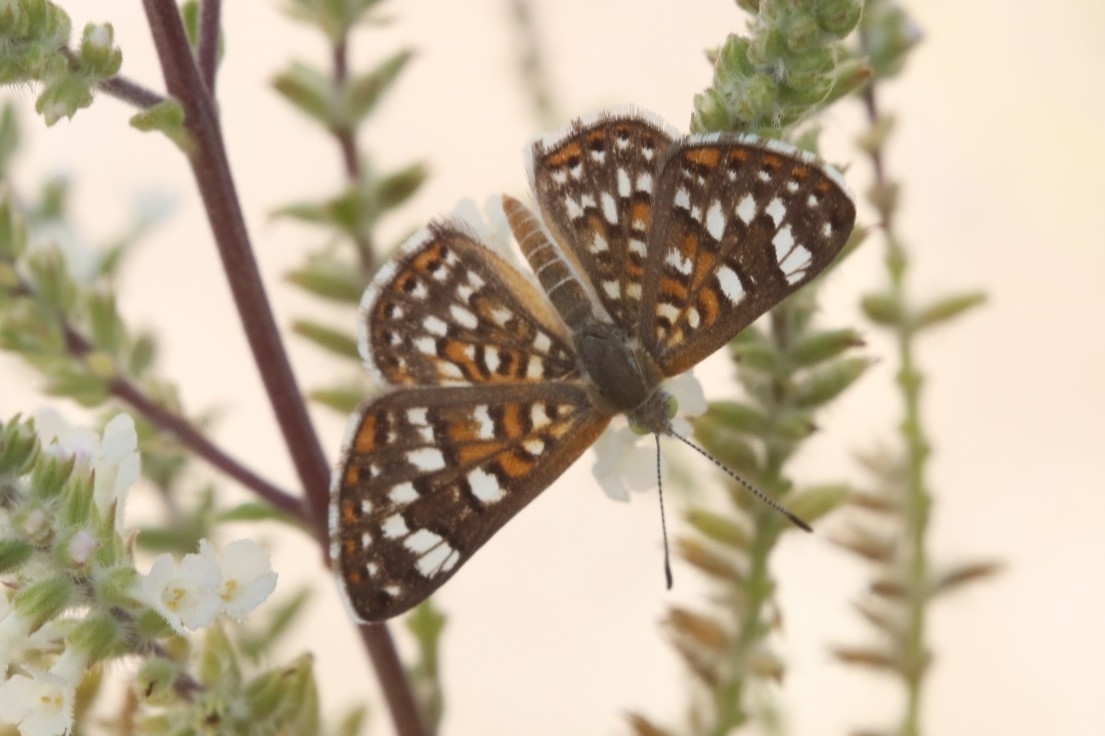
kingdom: Animalia
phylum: Arthropoda
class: Insecta
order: Lepidoptera
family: Riodinidae
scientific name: Riodinidae
